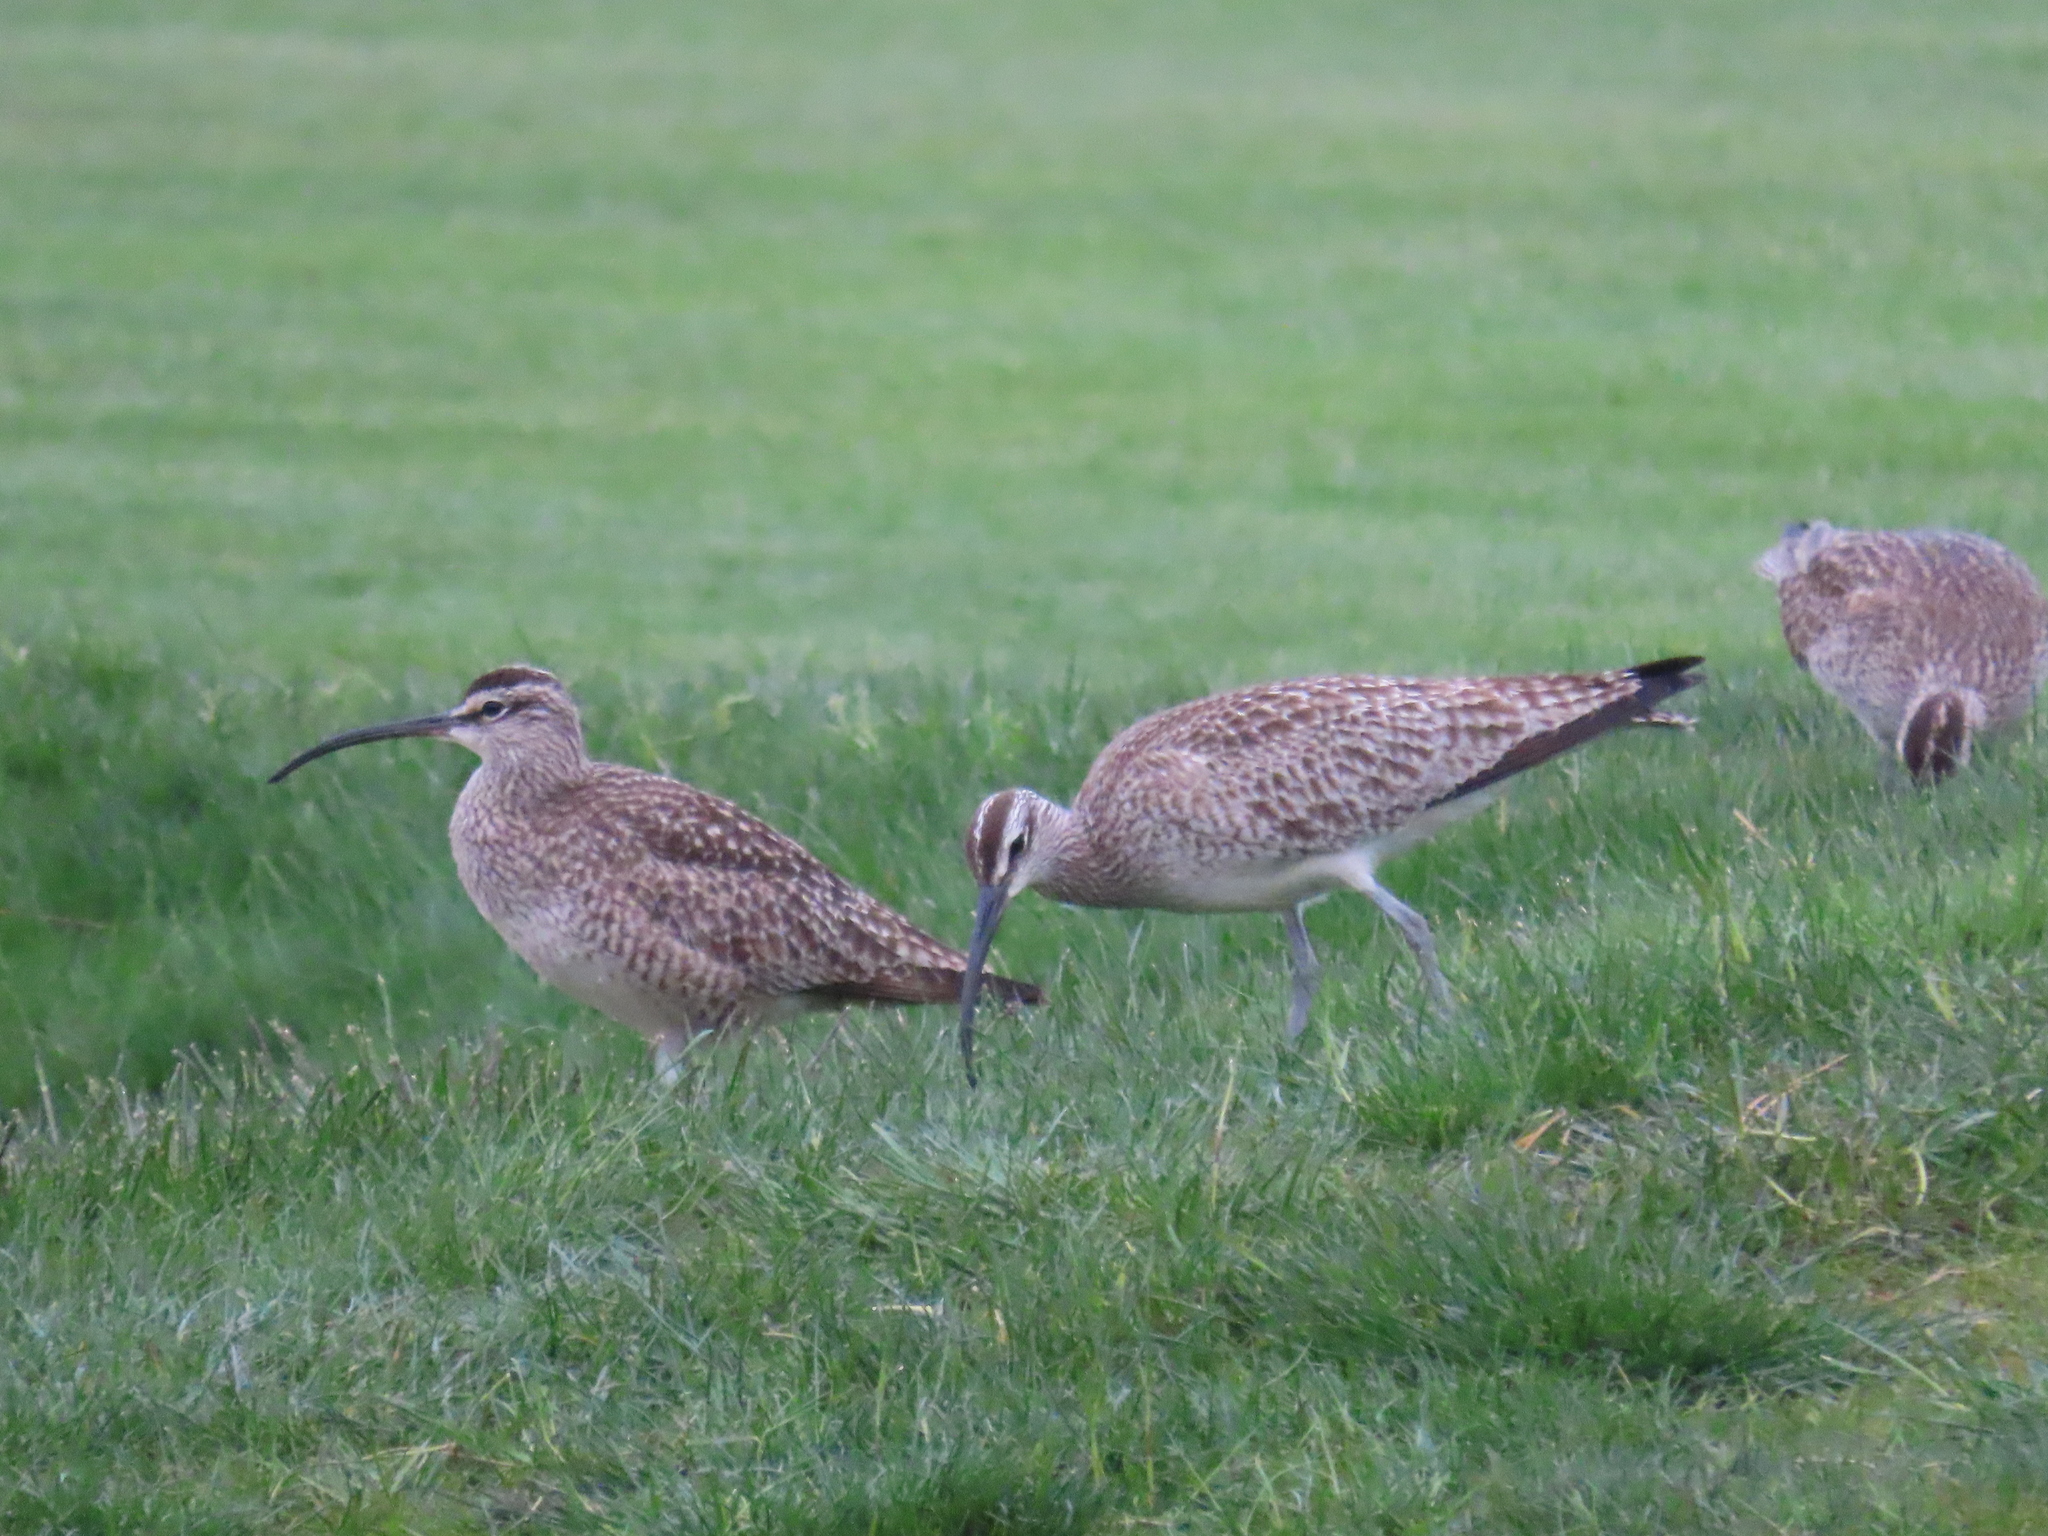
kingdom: Animalia
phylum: Chordata
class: Aves
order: Charadriiformes
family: Scolopacidae
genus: Numenius
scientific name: Numenius phaeopus
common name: Whimbrel
